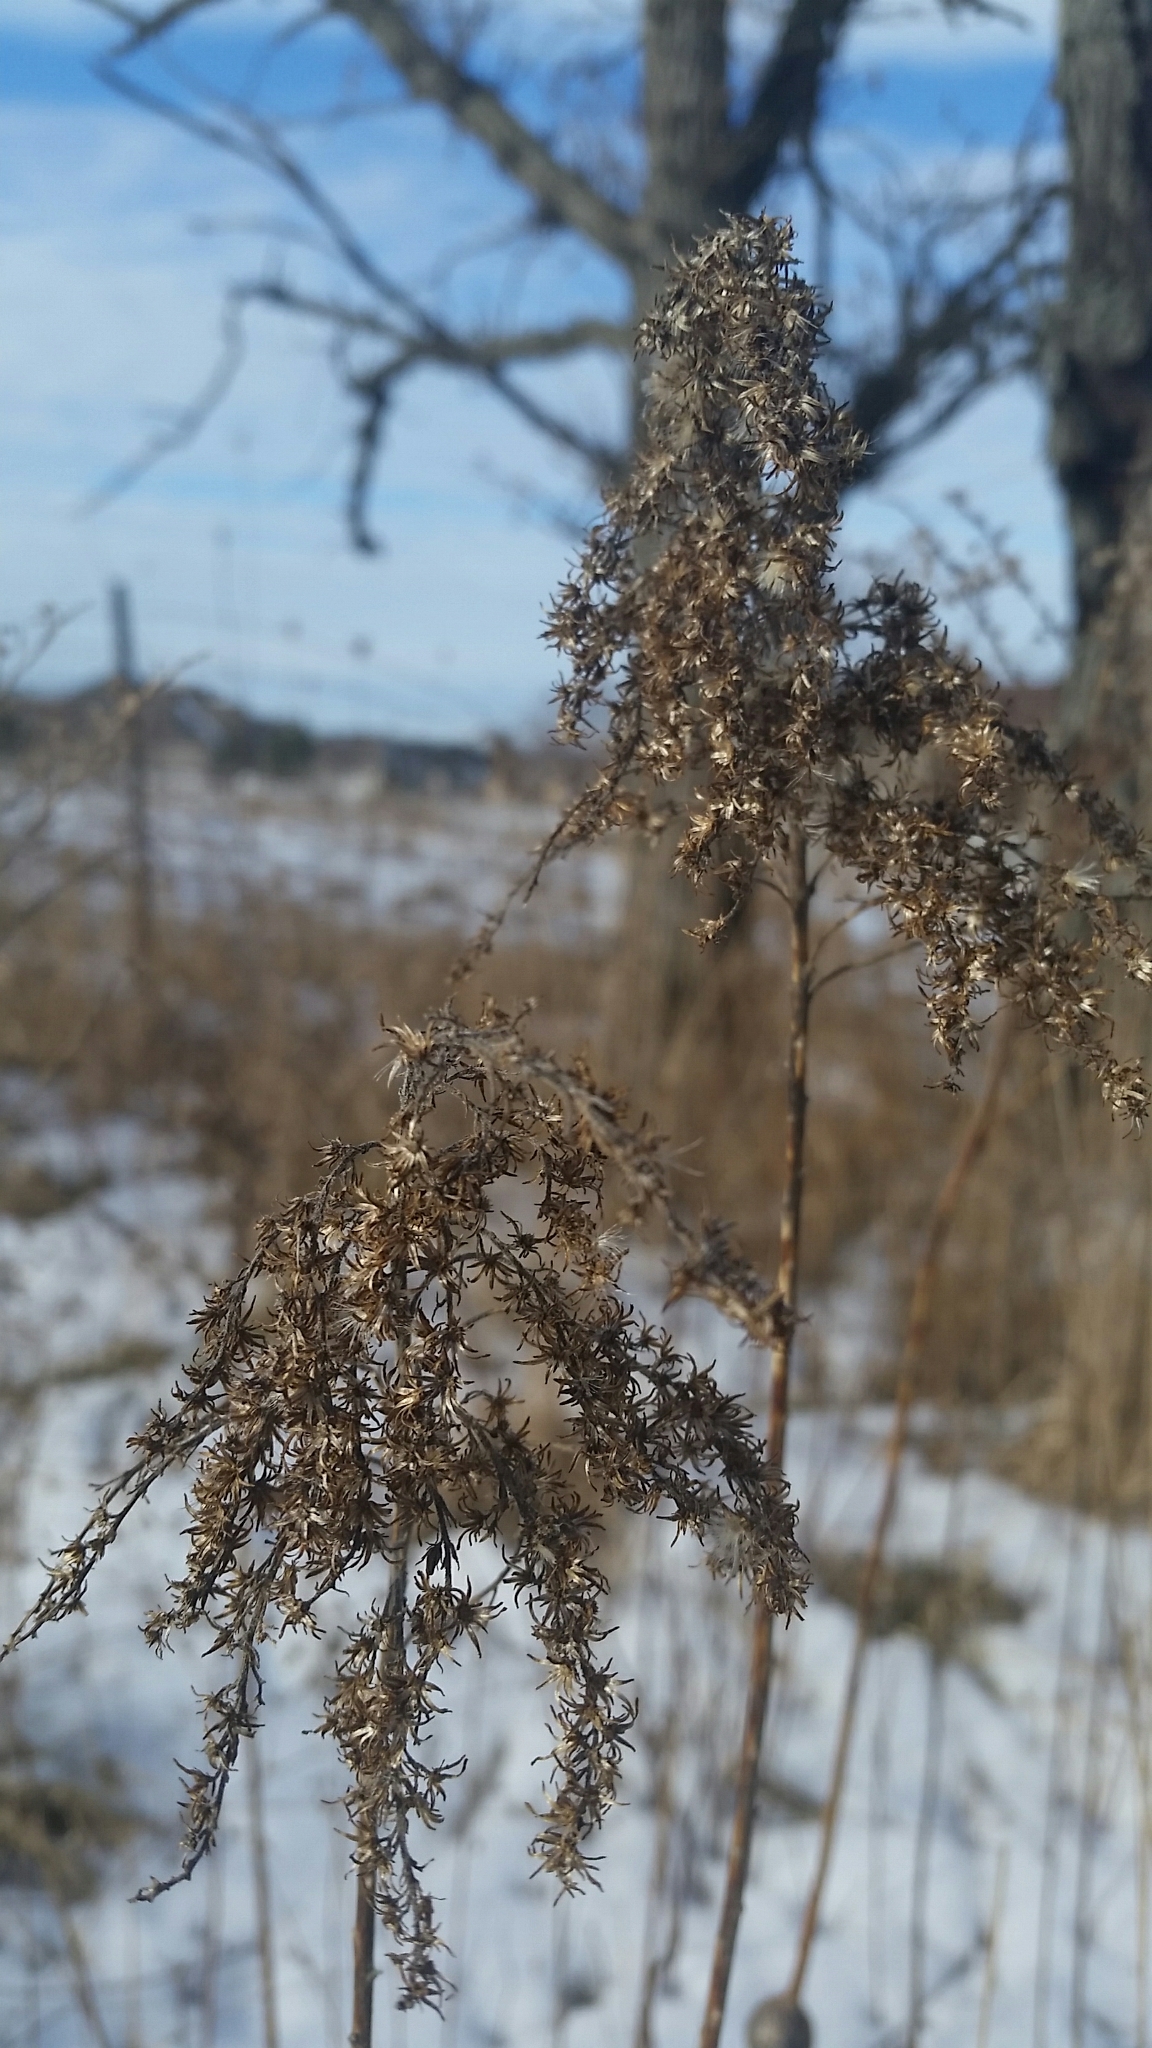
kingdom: Plantae
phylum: Tracheophyta
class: Magnoliopsida
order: Asterales
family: Asteraceae
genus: Solidago
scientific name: Solidago canadensis
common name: Canada goldenrod
